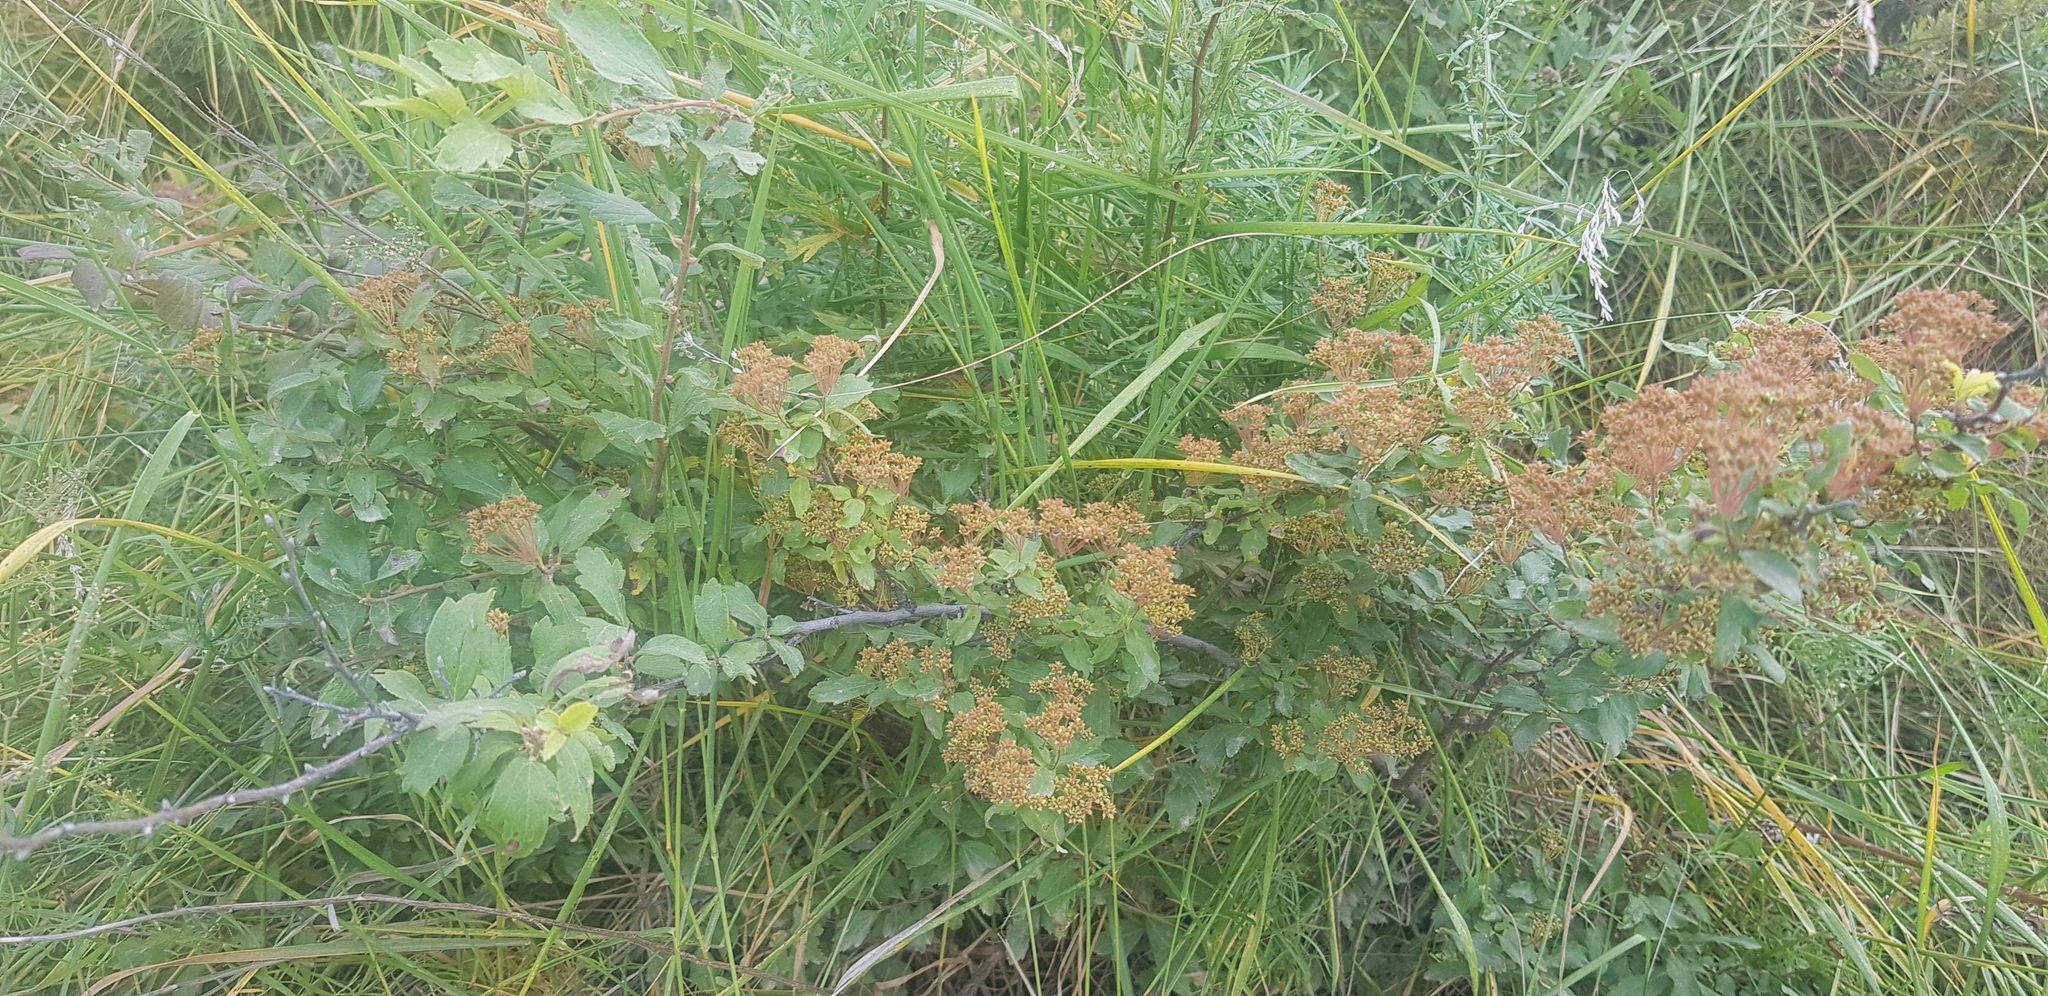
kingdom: Plantae
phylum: Tracheophyta
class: Magnoliopsida
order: Rosales
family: Rosaceae
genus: Spiraea
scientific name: Spiraea media
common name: Russian spiraea
